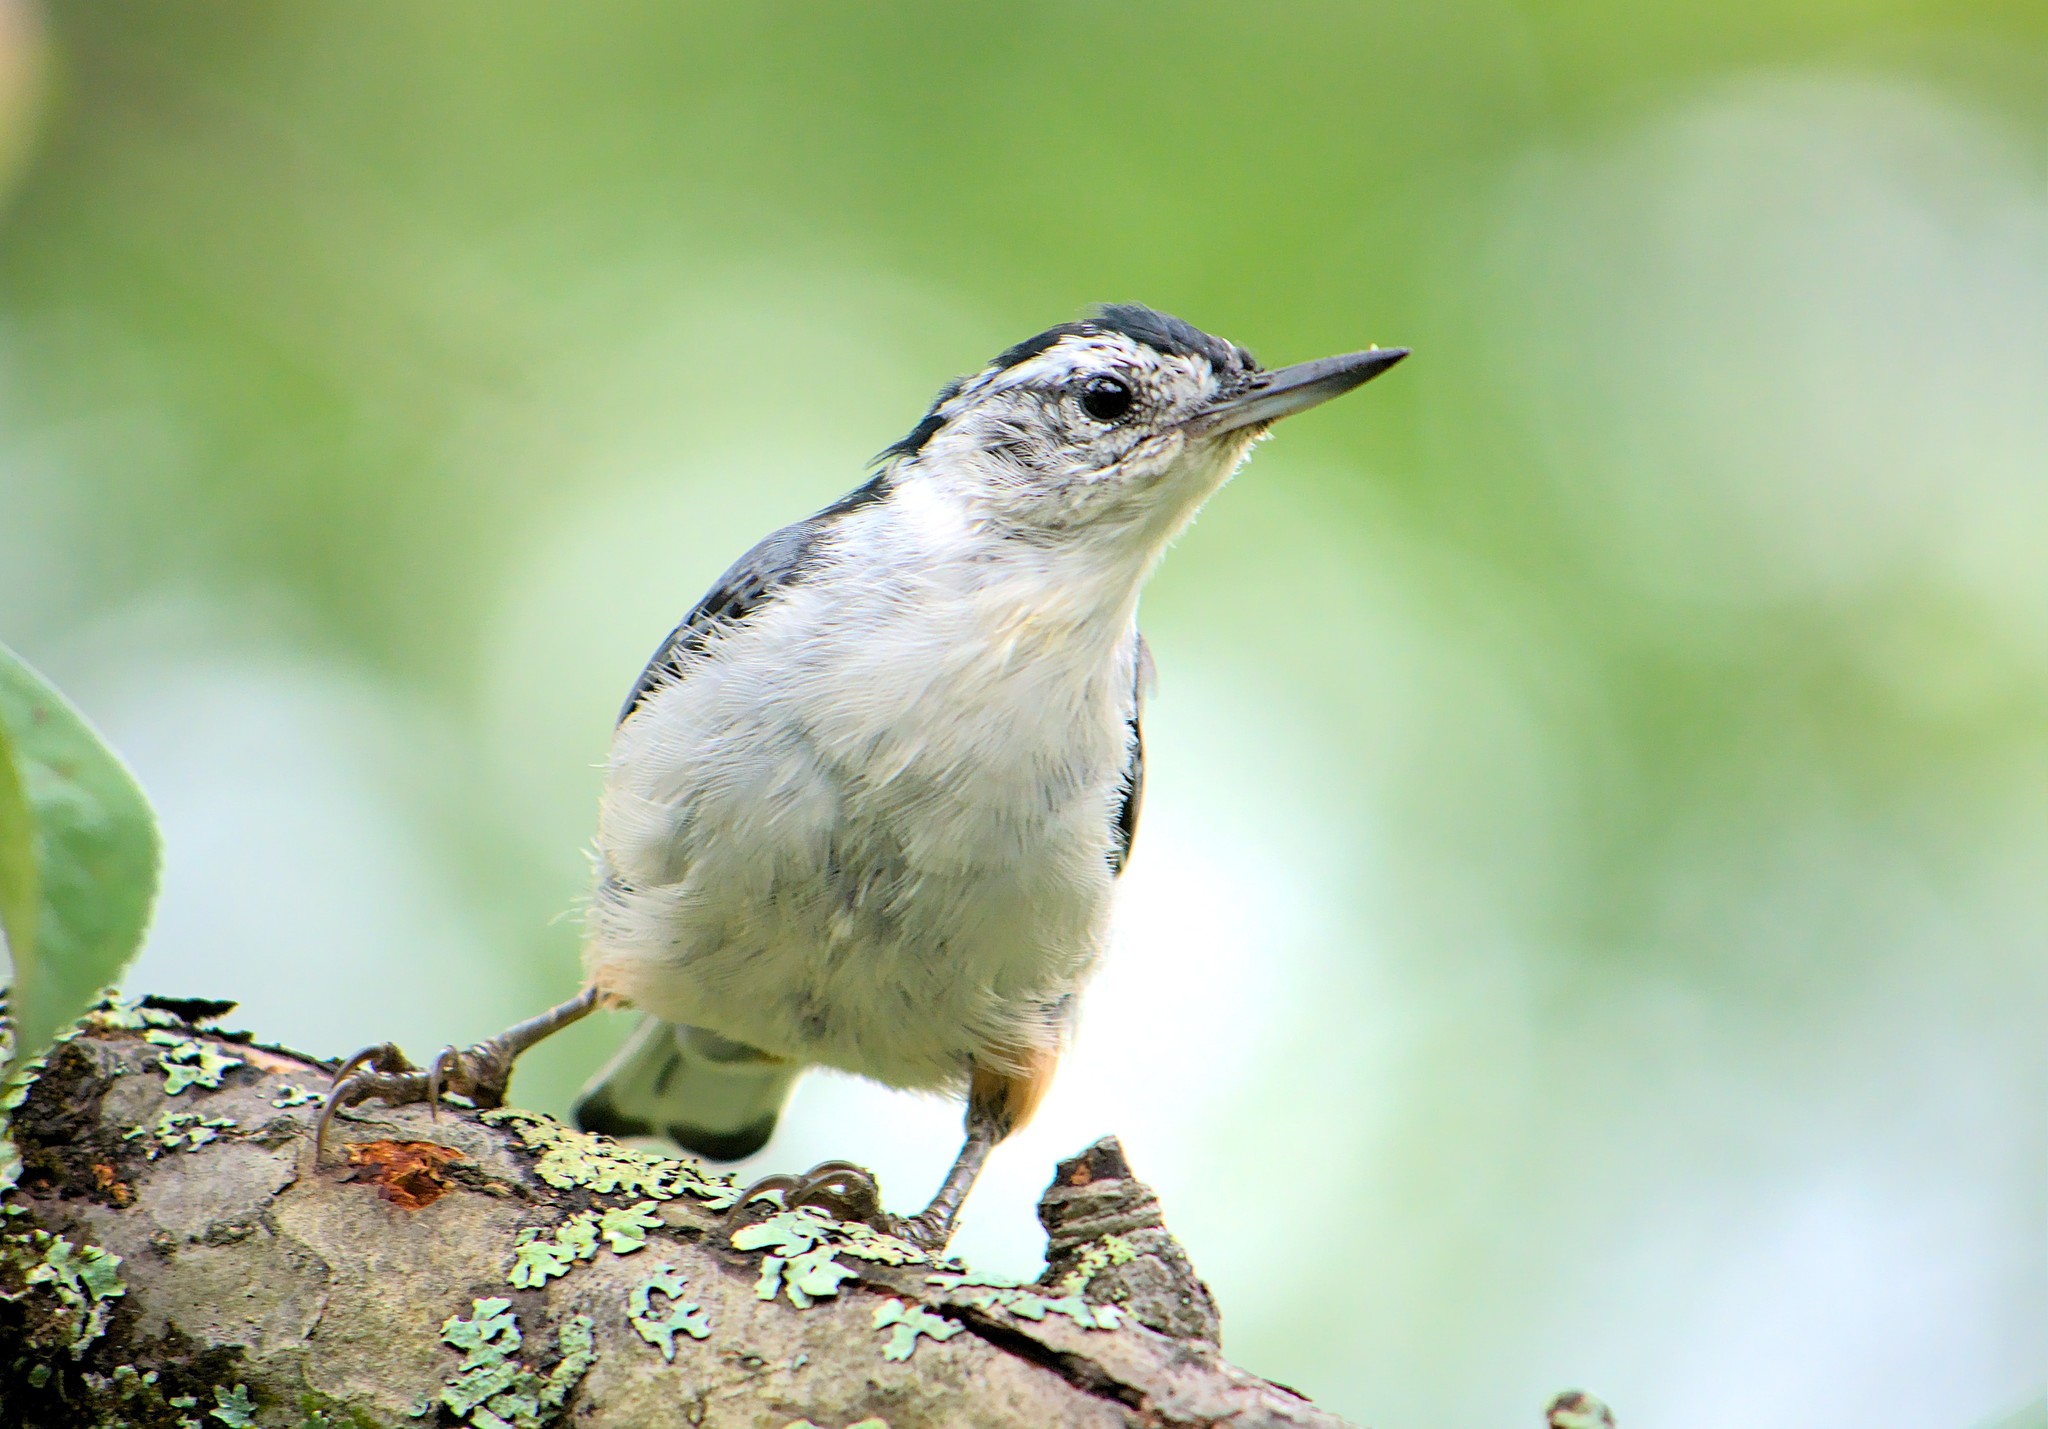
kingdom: Animalia
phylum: Chordata
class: Aves
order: Passeriformes
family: Sittidae
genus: Sitta
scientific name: Sitta carolinensis
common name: White-breasted nuthatch
